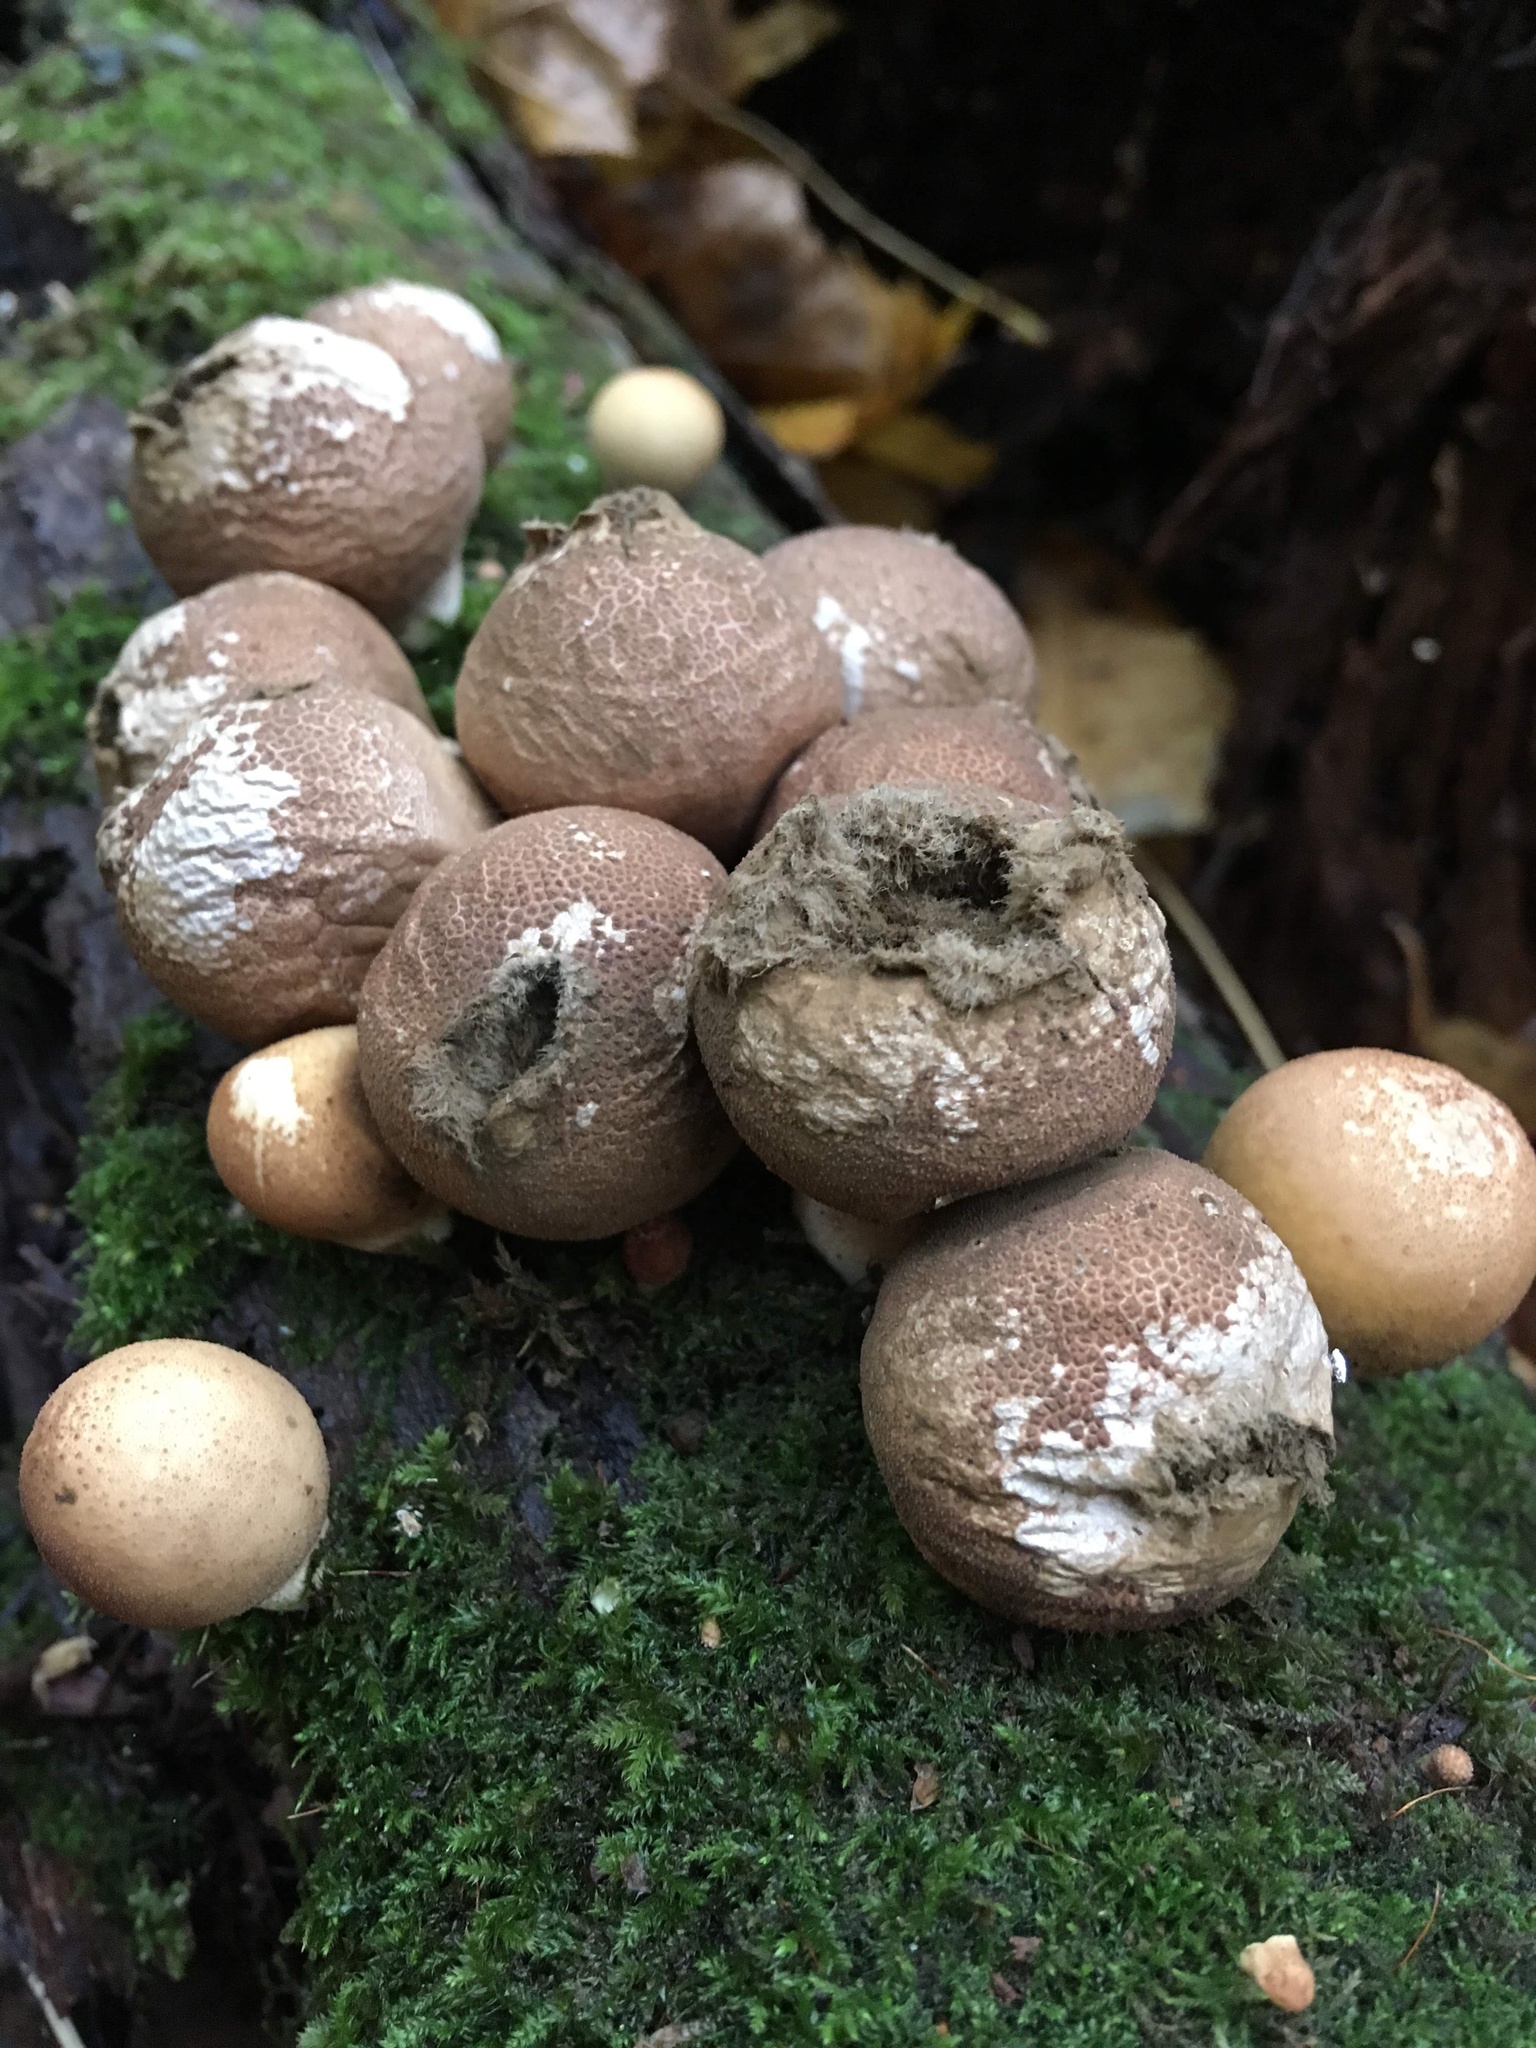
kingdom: Fungi
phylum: Basidiomycota
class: Agaricomycetes
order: Agaricales
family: Lycoperdaceae
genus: Apioperdon
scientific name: Apioperdon pyriforme
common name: Pear-shaped puffball
